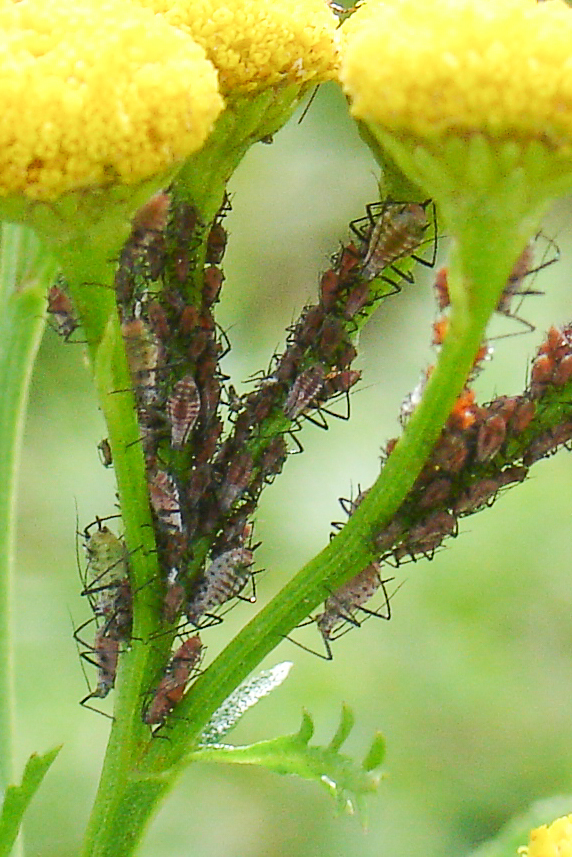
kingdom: Animalia
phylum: Arthropoda
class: Insecta
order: Hemiptera
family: Aphididae
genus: Macrosiphoniella
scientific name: Macrosiphoniella tanacetaria
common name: Aphid
